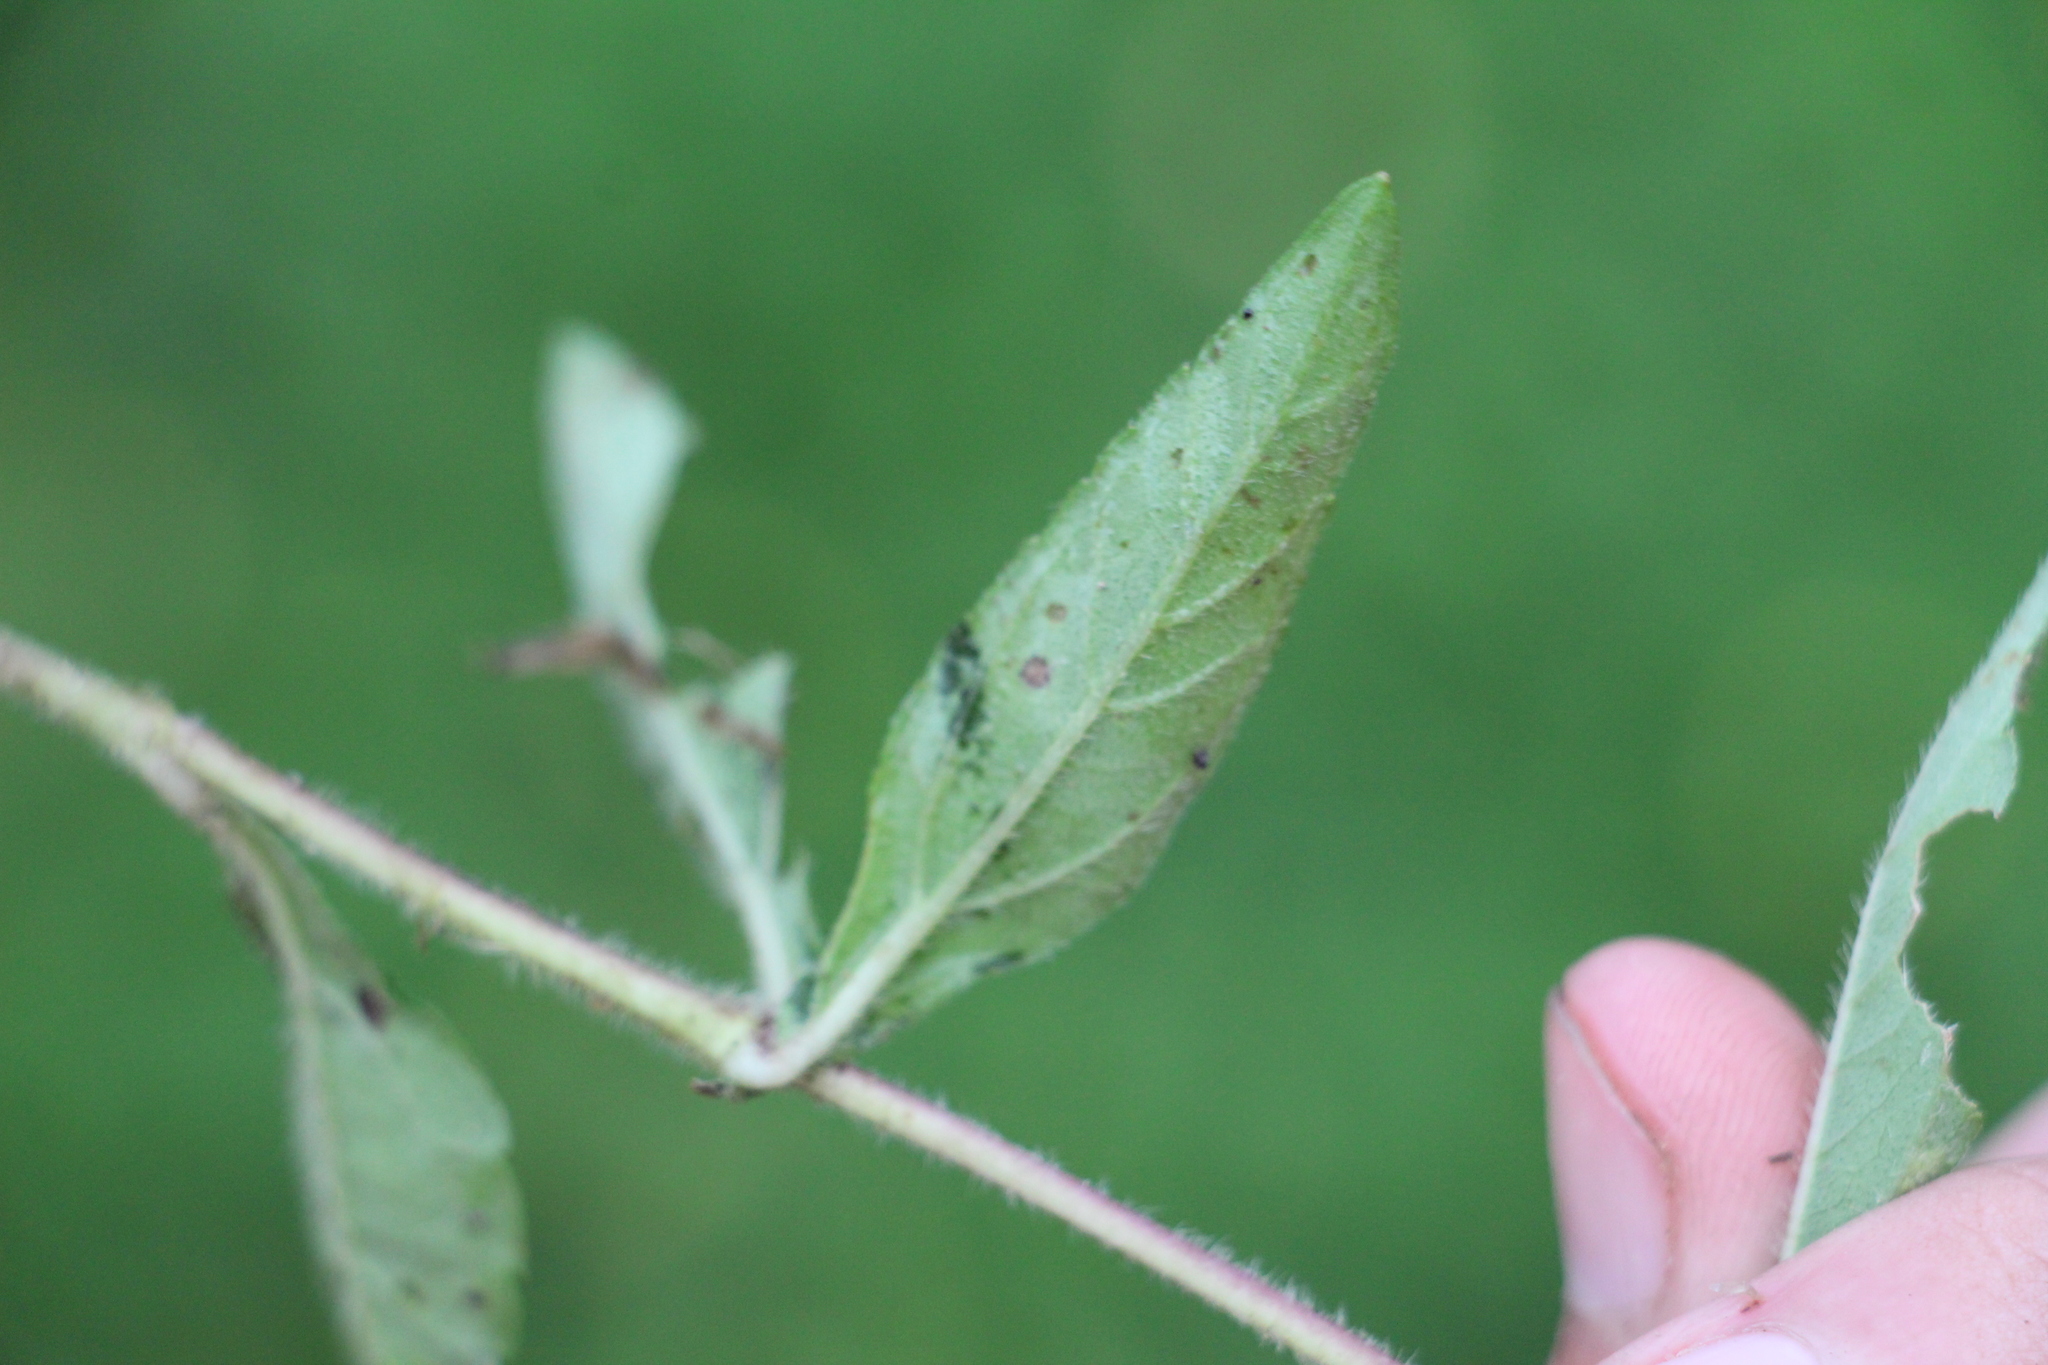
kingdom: Plantae
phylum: Tracheophyta
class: Magnoliopsida
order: Asterales
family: Asteraceae
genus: Sphagneticola
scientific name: Sphagneticola trilobata
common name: Bay biscayne creeping-oxeye
